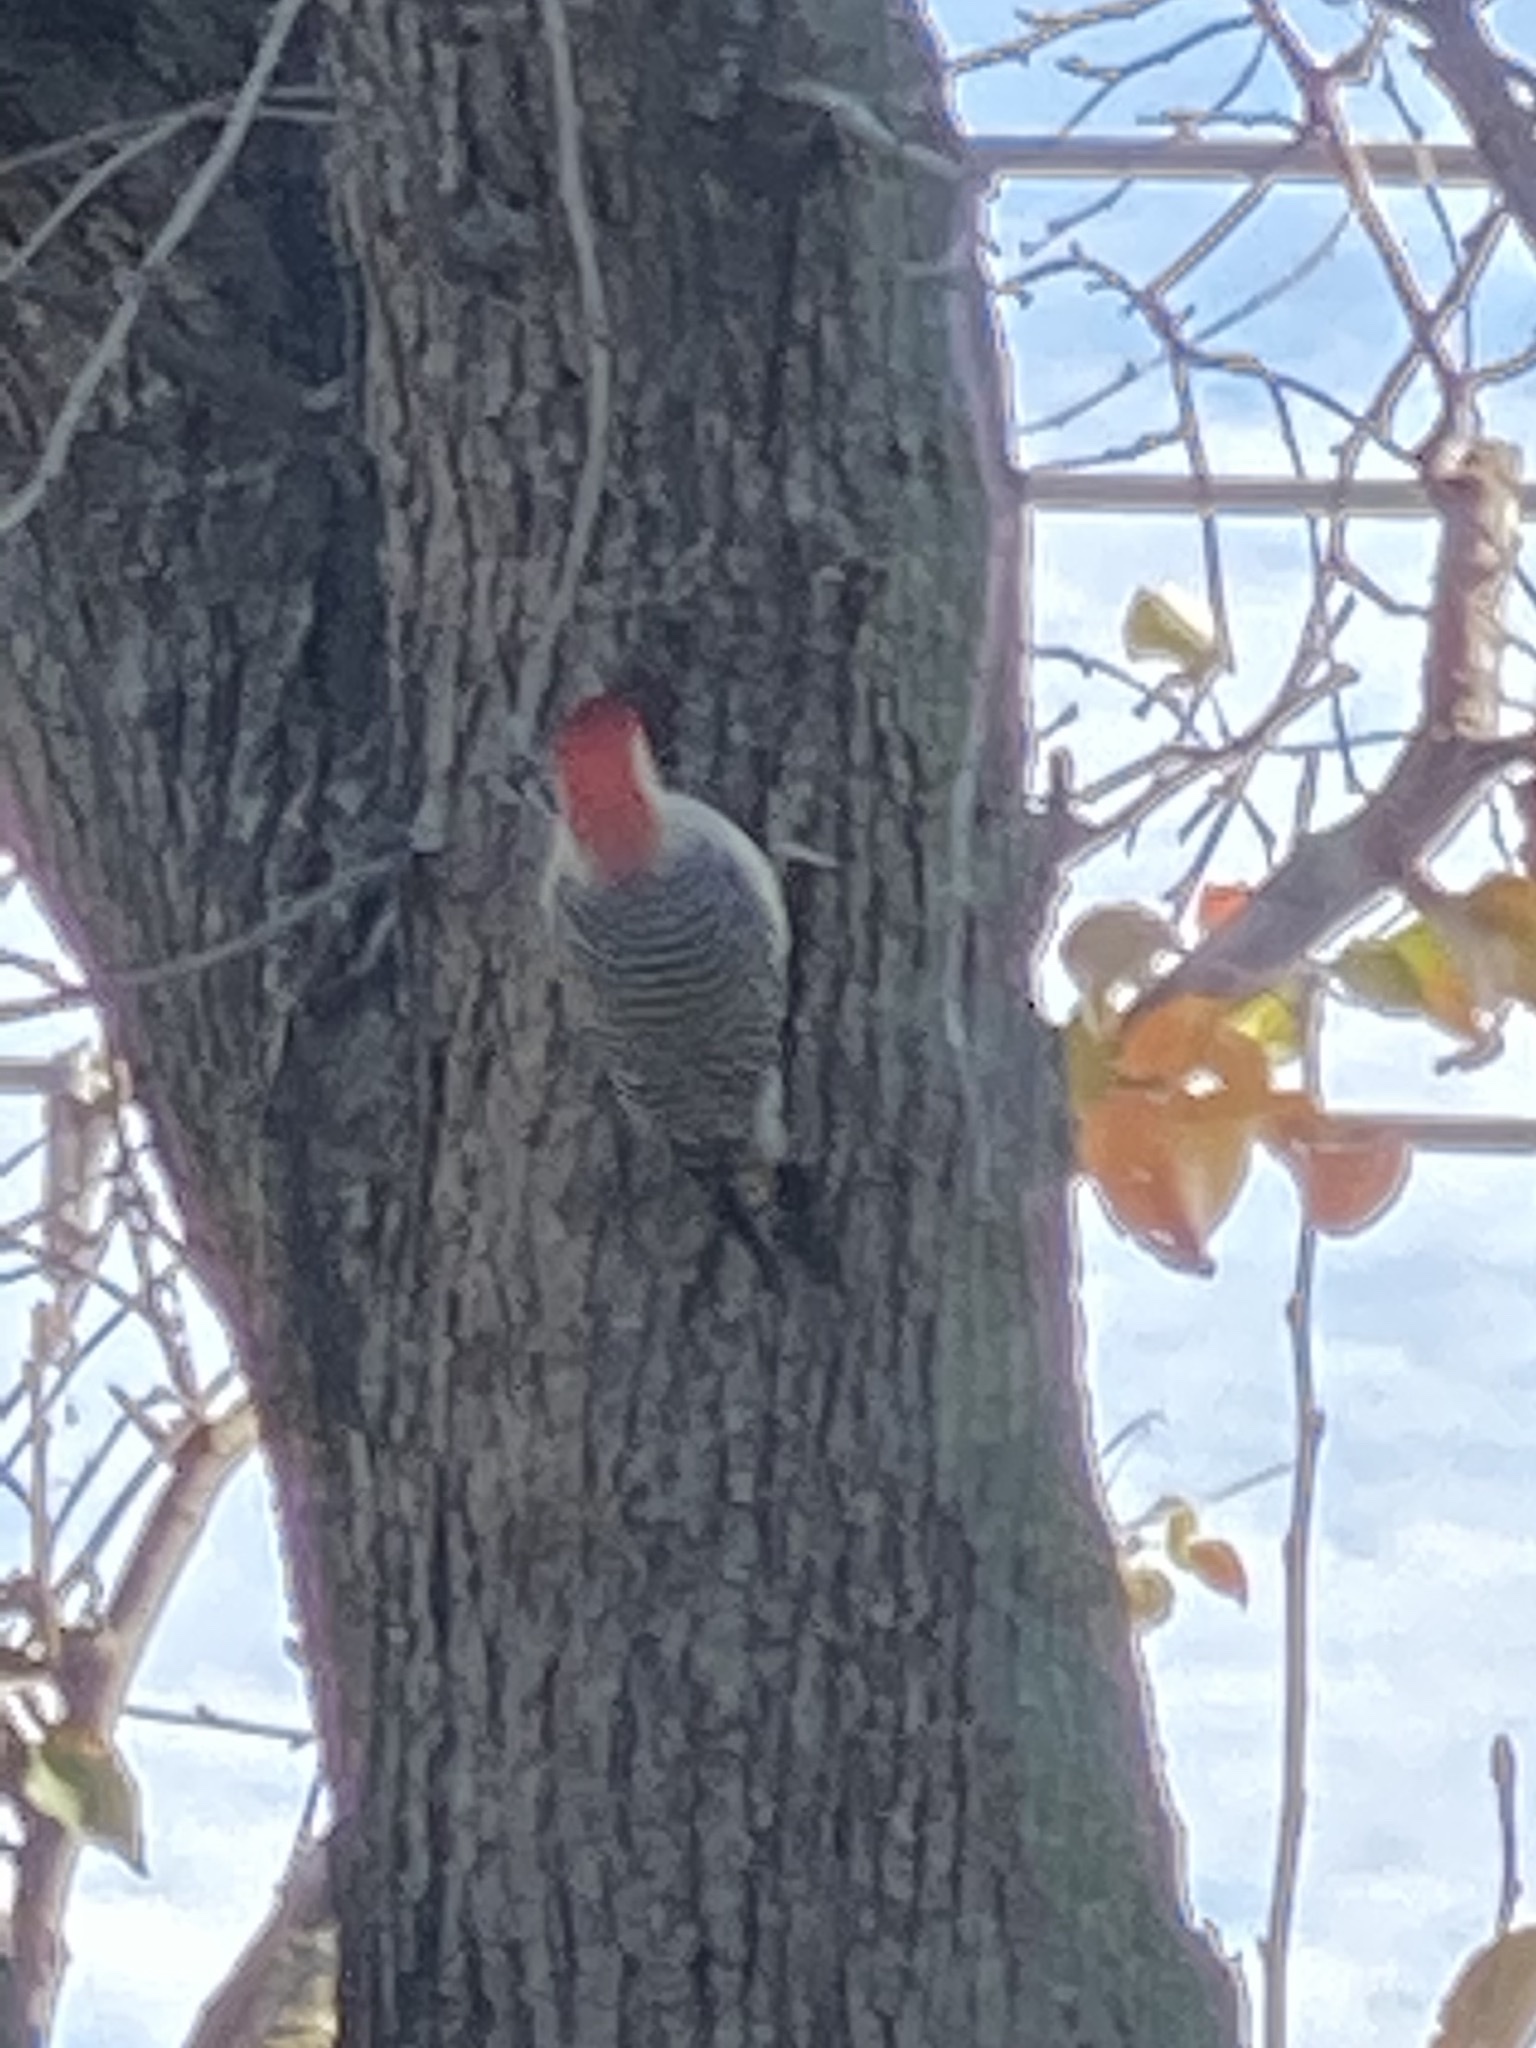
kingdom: Animalia
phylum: Chordata
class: Aves
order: Piciformes
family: Picidae
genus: Melanerpes
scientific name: Melanerpes carolinus
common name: Red-bellied woodpecker
